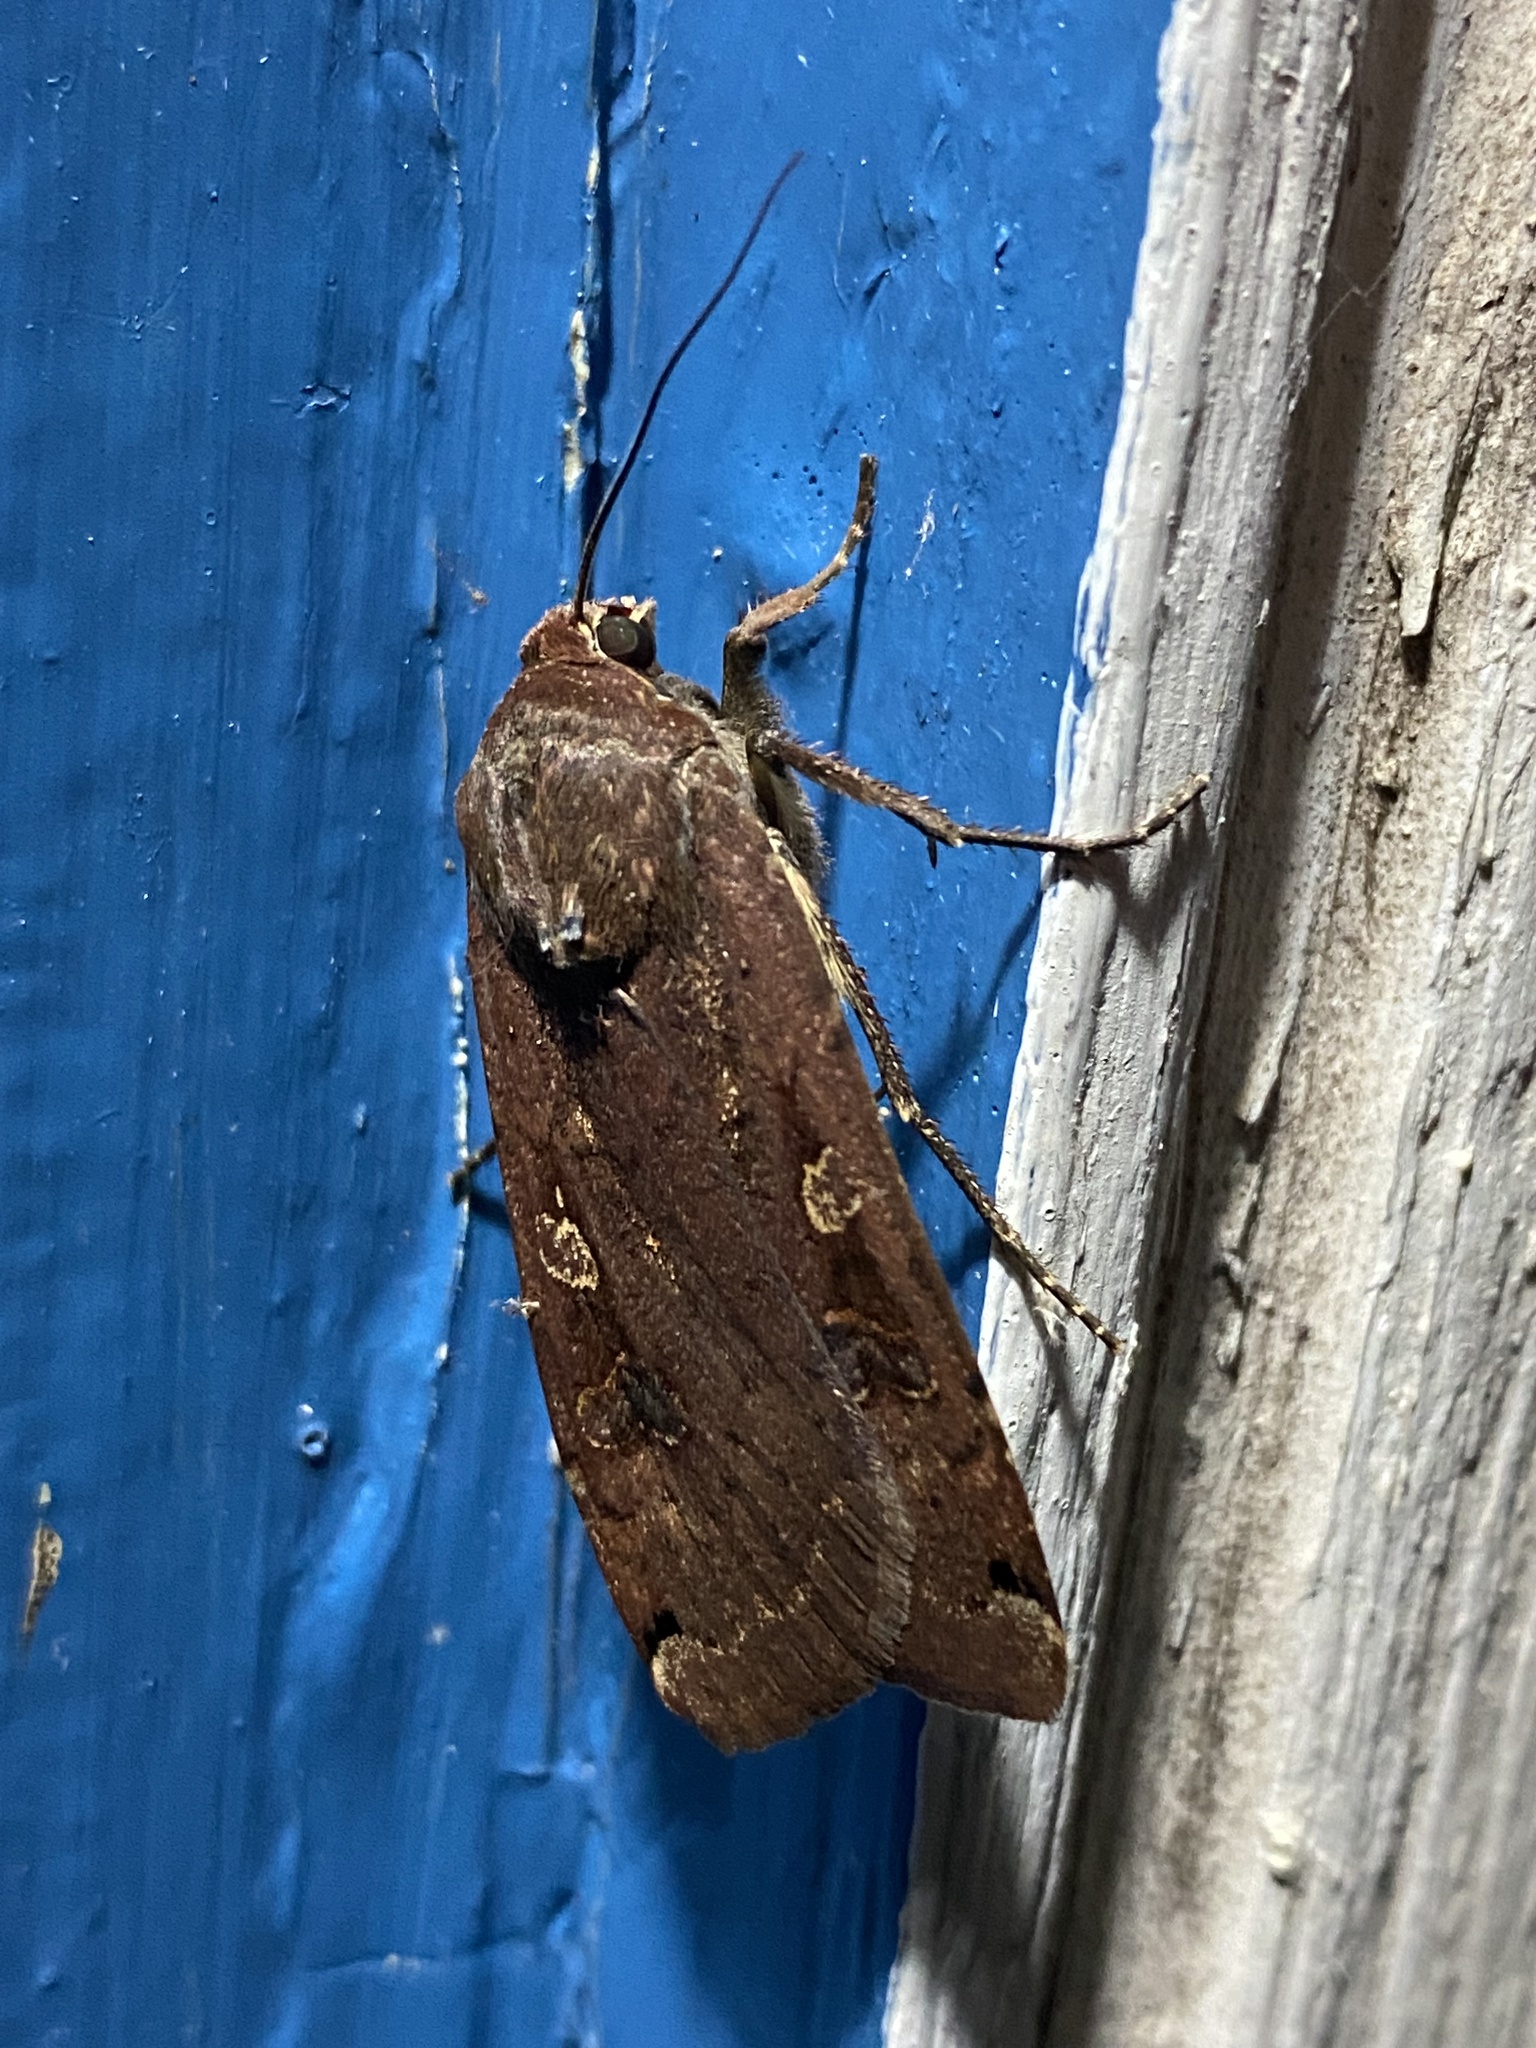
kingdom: Animalia
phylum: Arthropoda
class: Insecta
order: Lepidoptera
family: Noctuidae
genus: Noctua
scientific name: Noctua pronuba
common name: Large yellow underwing
